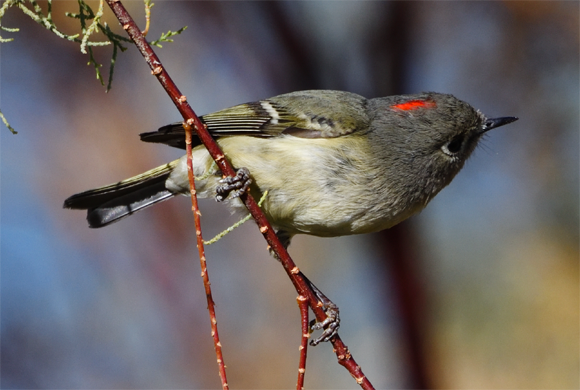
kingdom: Animalia
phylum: Chordata
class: Aves
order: Passeriformes
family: Regulidae
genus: Regulus
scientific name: Regulus calendula
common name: Ruby-crowned kinglet
